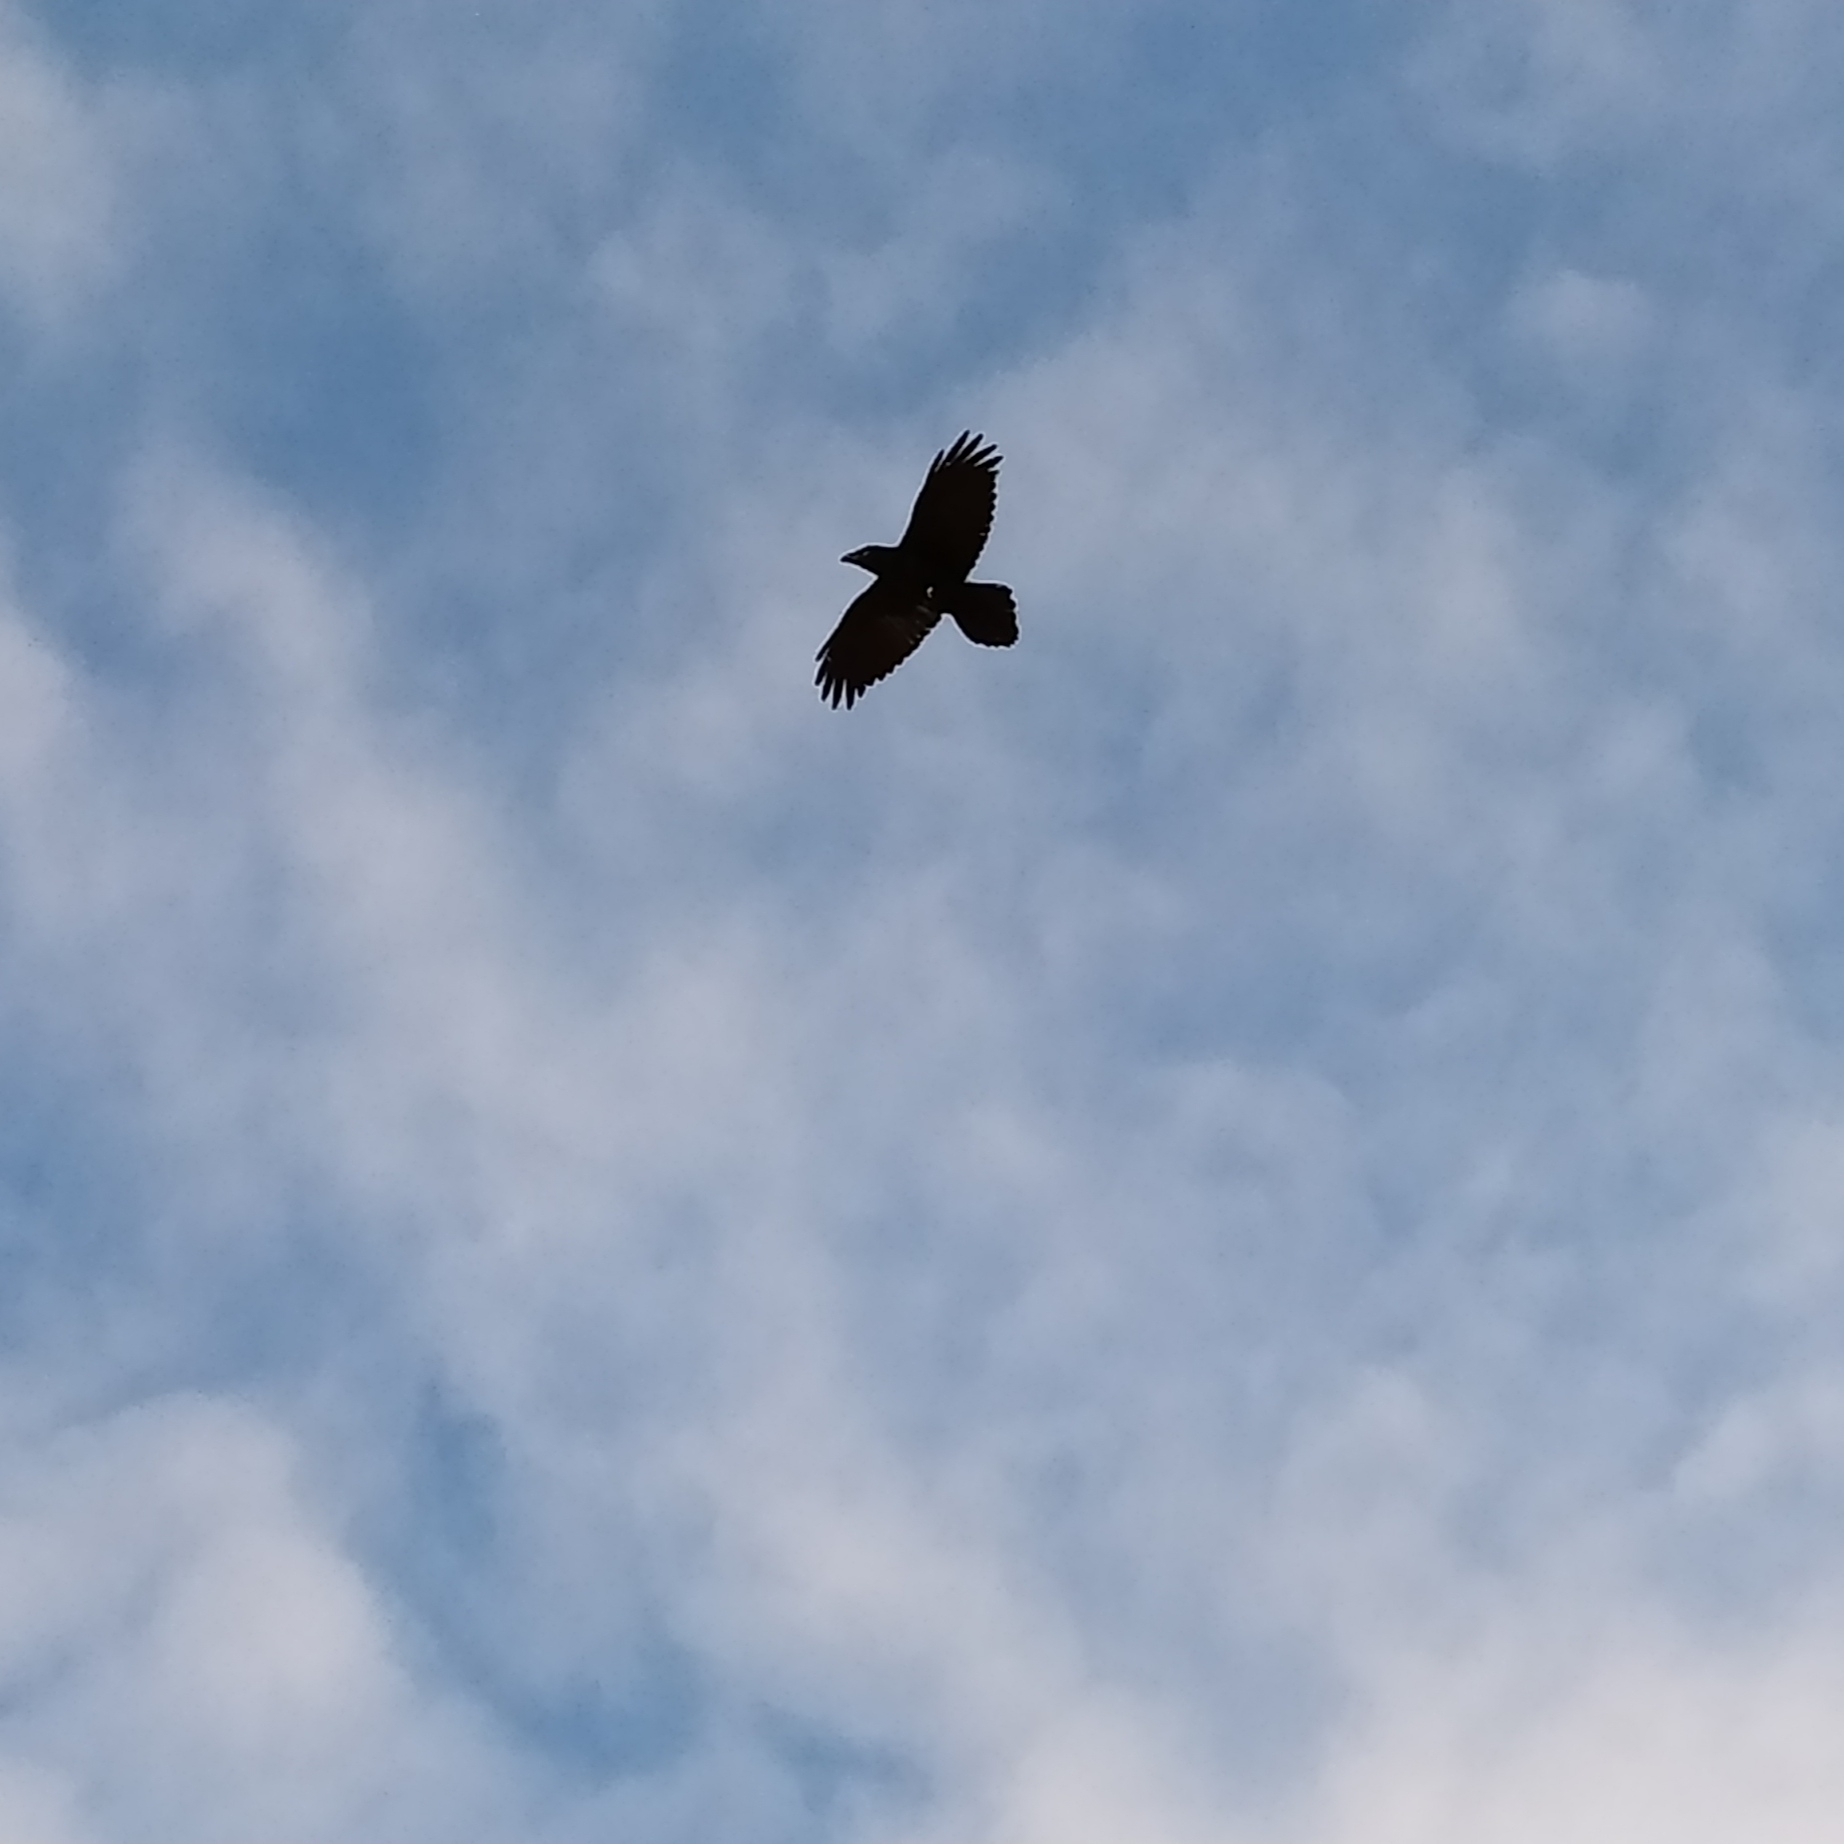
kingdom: Animalia
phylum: Chordata
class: Aves
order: Passeriformes
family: Corvidae
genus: Corvus
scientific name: Corvus corax
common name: Common raven
